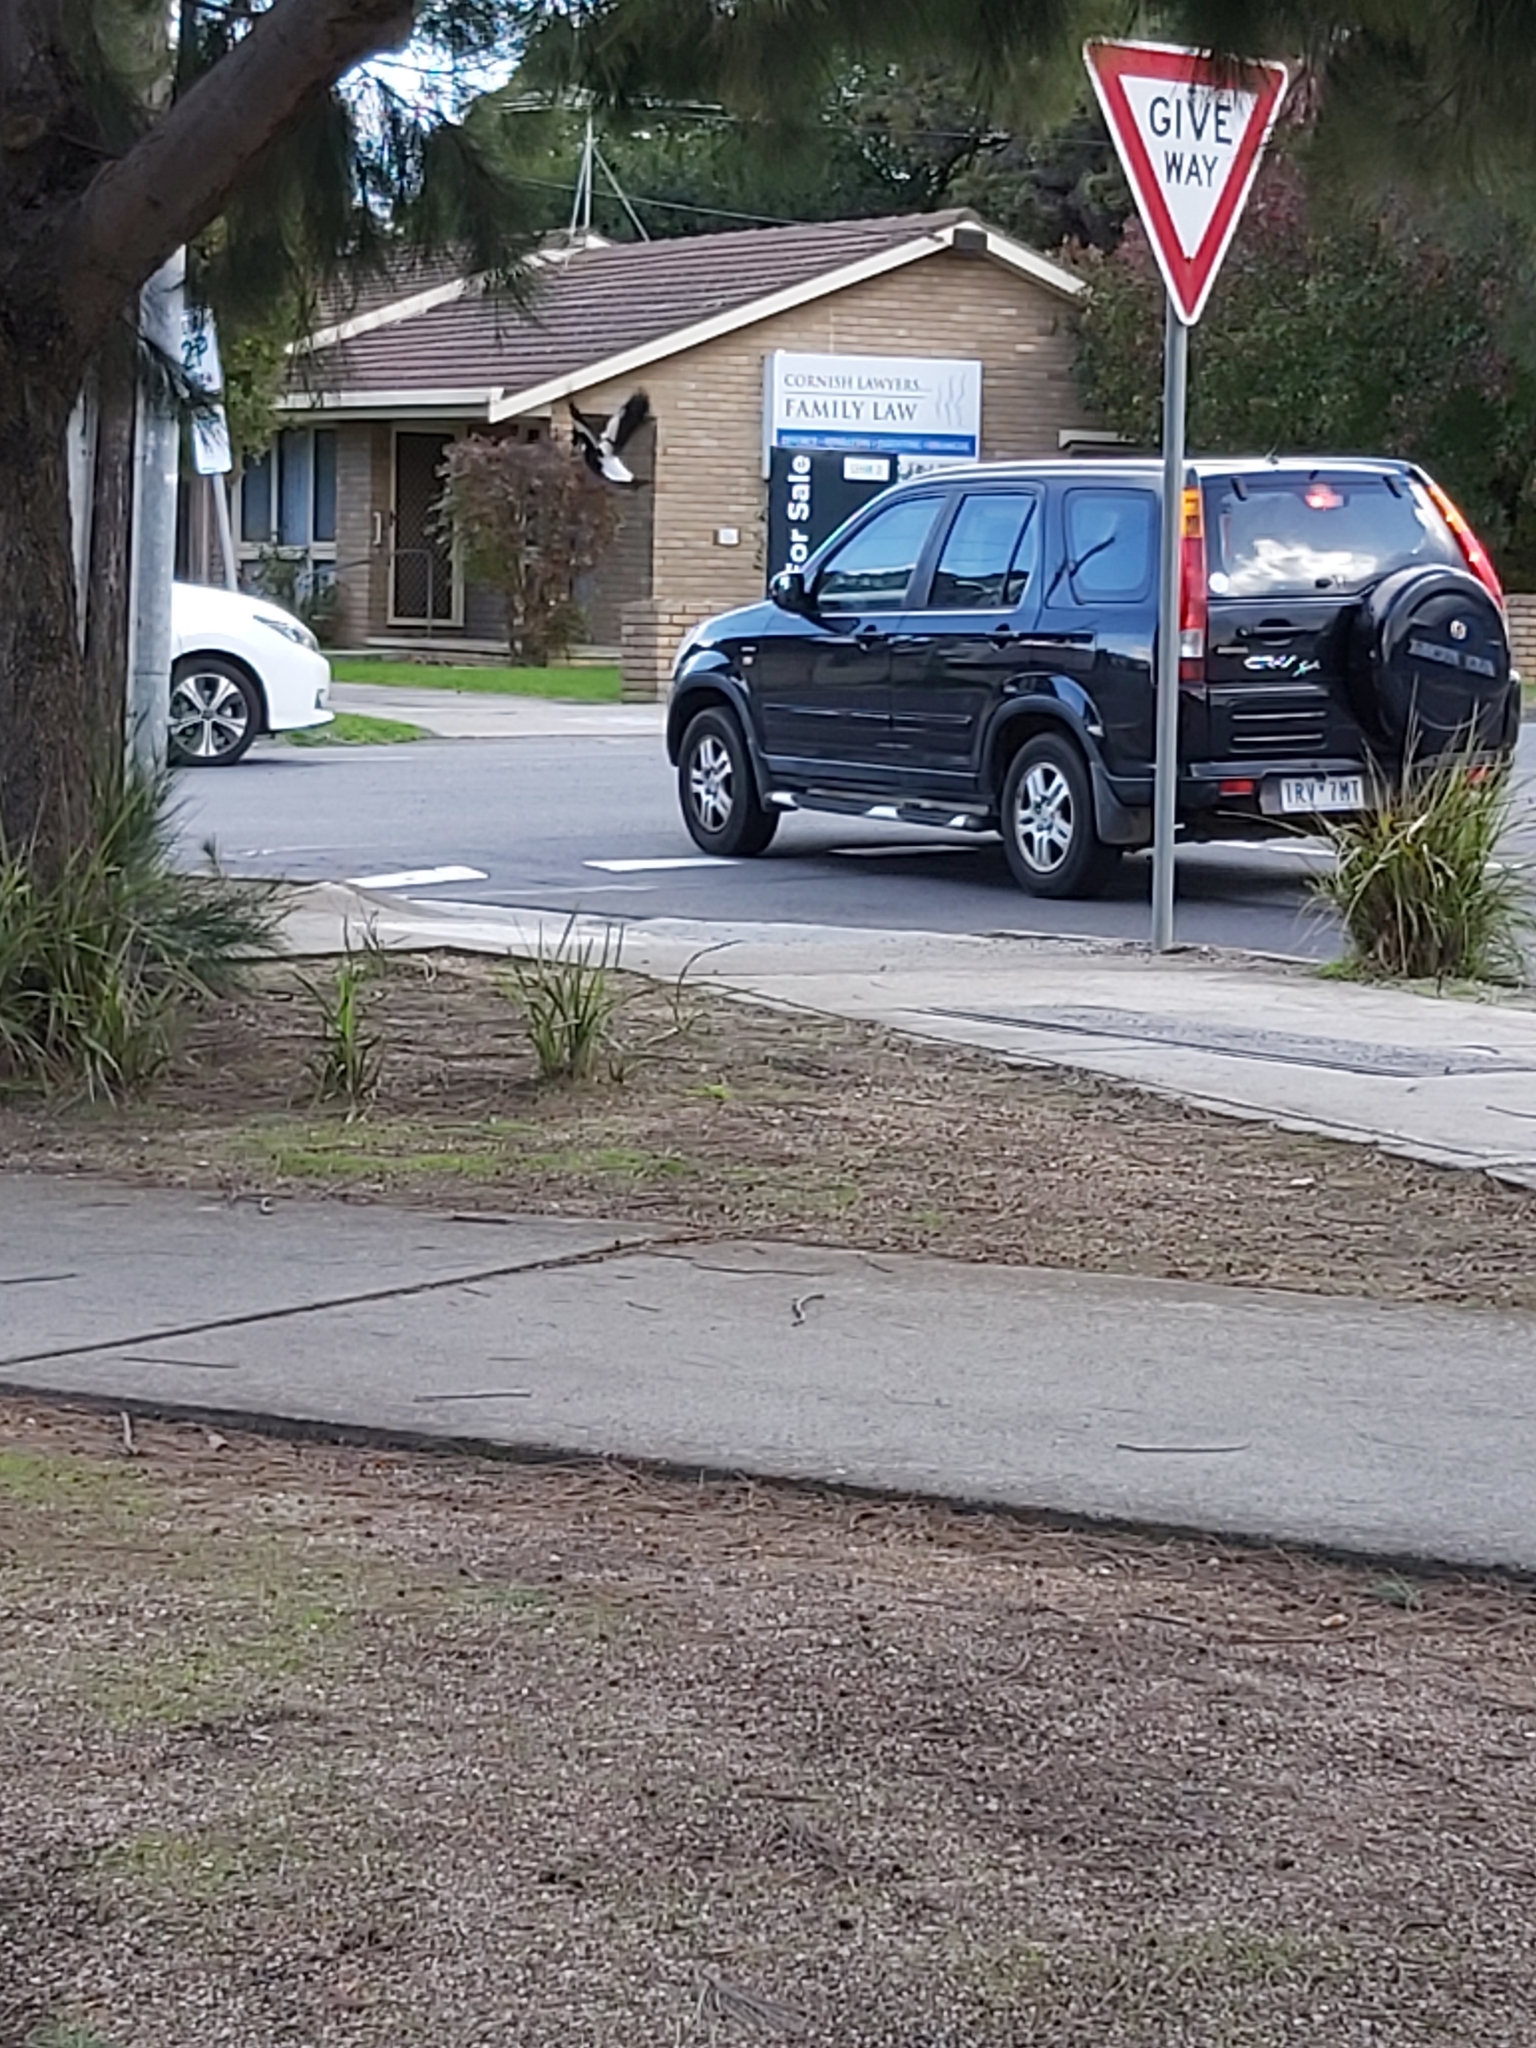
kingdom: Animalia
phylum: Chordata
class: Aves
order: Passeriformes
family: Cracticidae
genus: Gymnorhina
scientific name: Gymnorhina tibicen
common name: Australian magpie
